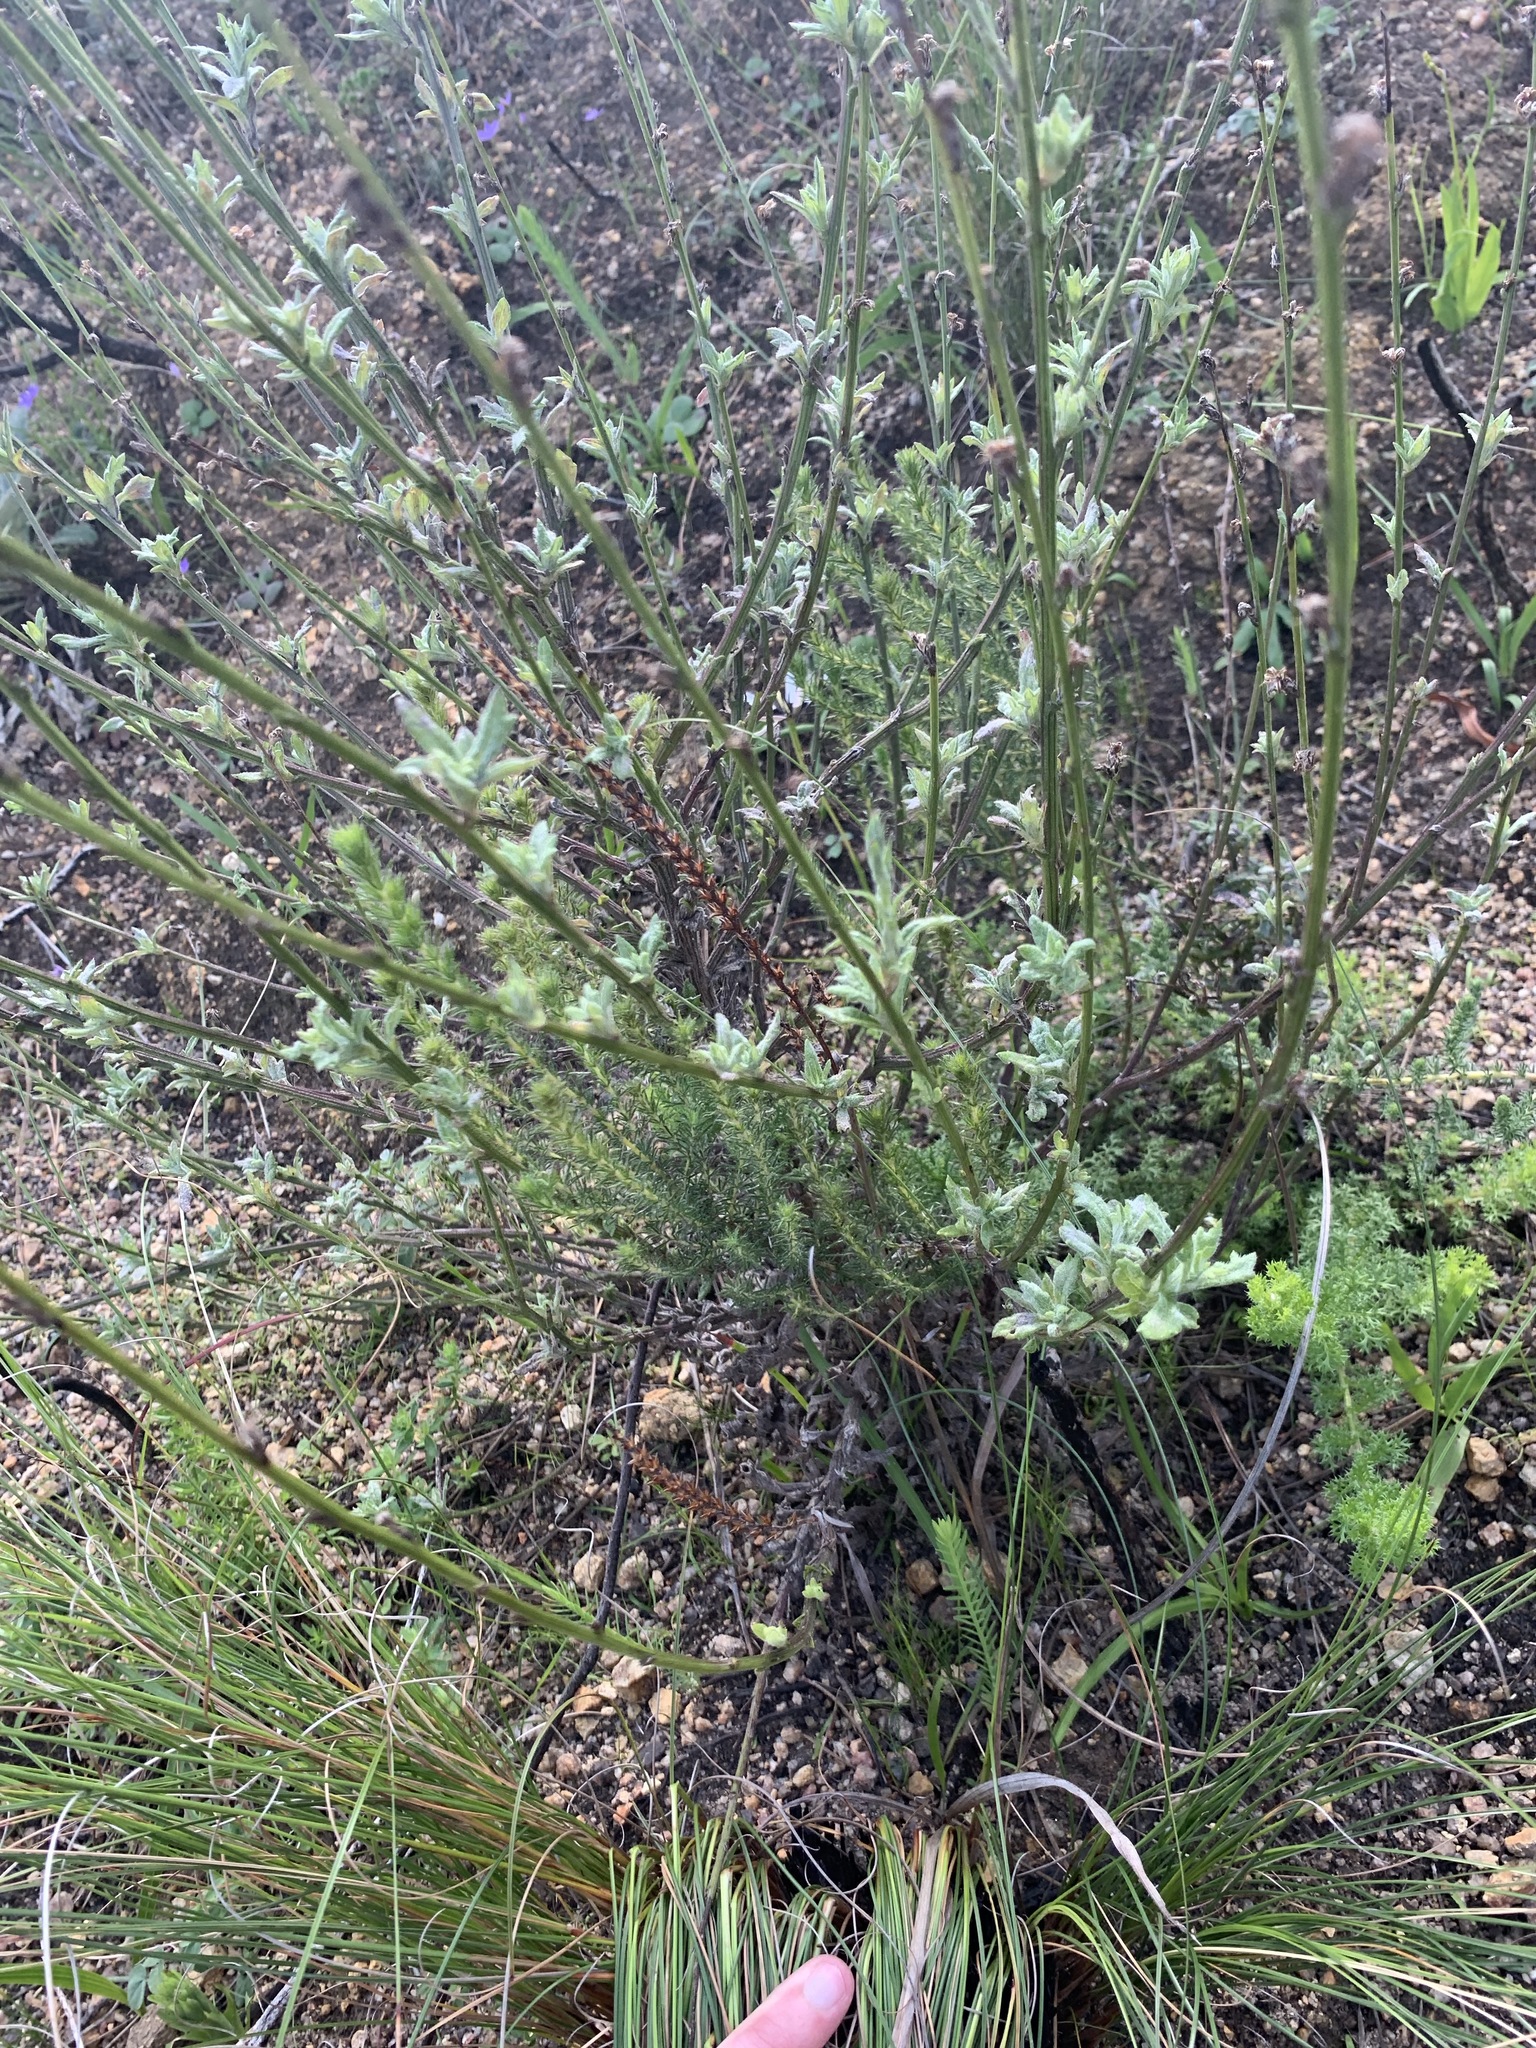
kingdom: Plantae
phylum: Tracheophyta
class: Magnoliopsida
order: Asterales
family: Asteraceae
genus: Senecio
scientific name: Senecio pubigerus
